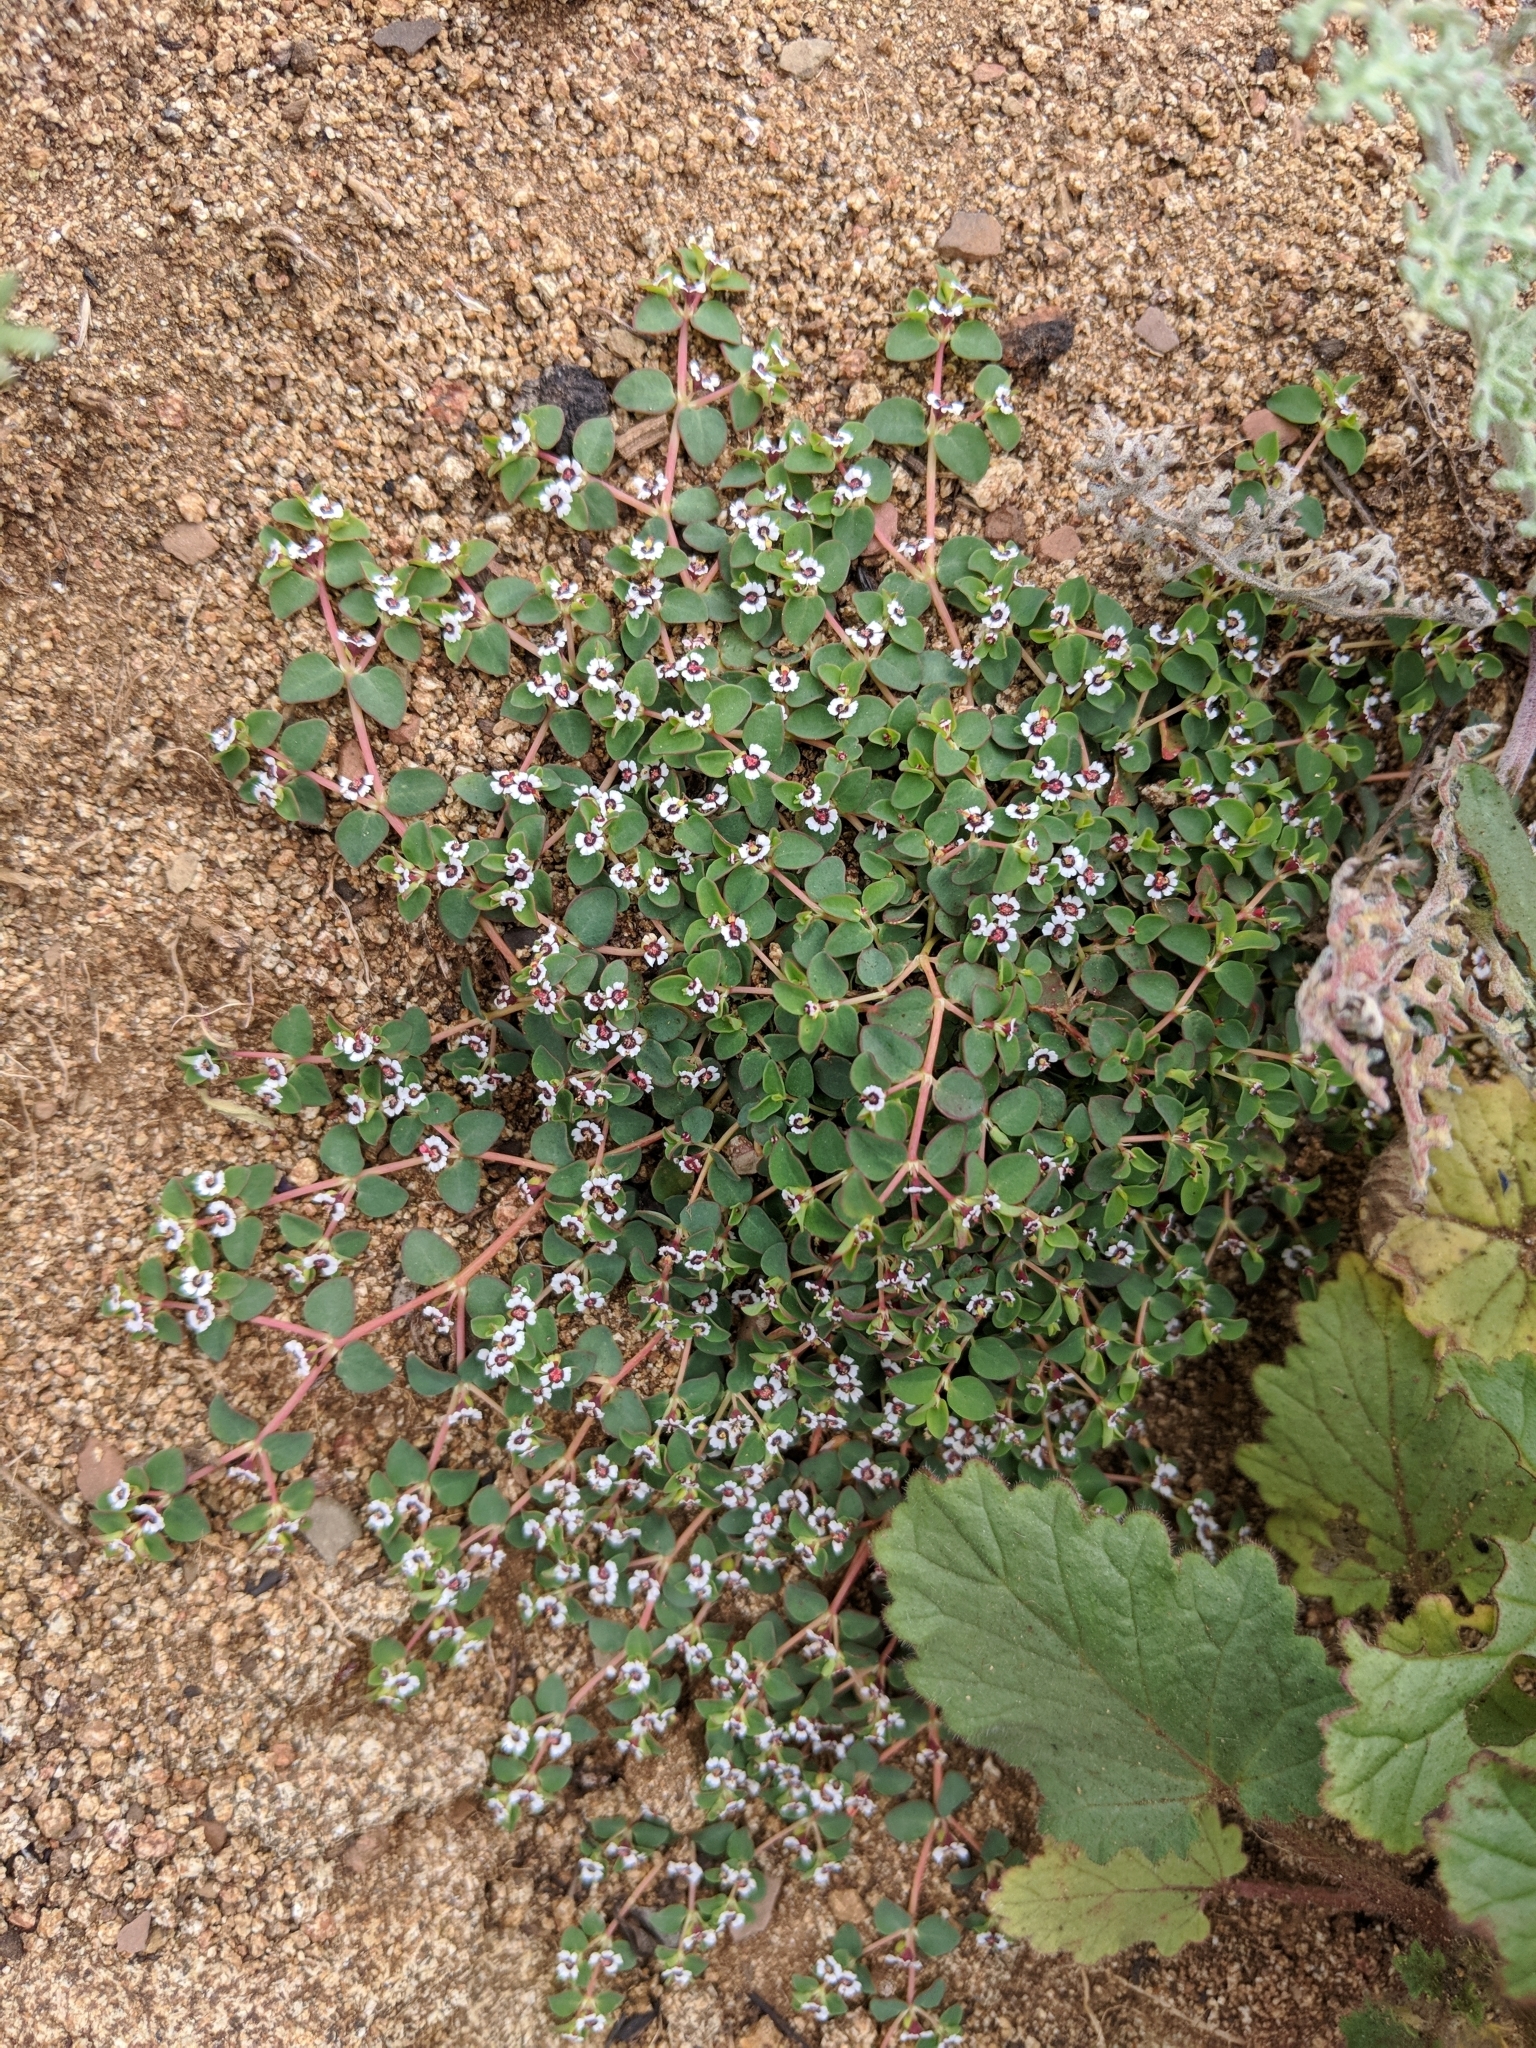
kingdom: Plantae
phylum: Tracheophyta
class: Magnoliopsida
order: Malpighiales
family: Euphorbiaceae
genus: Euphorbia
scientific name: Euphorbia polycarpa
